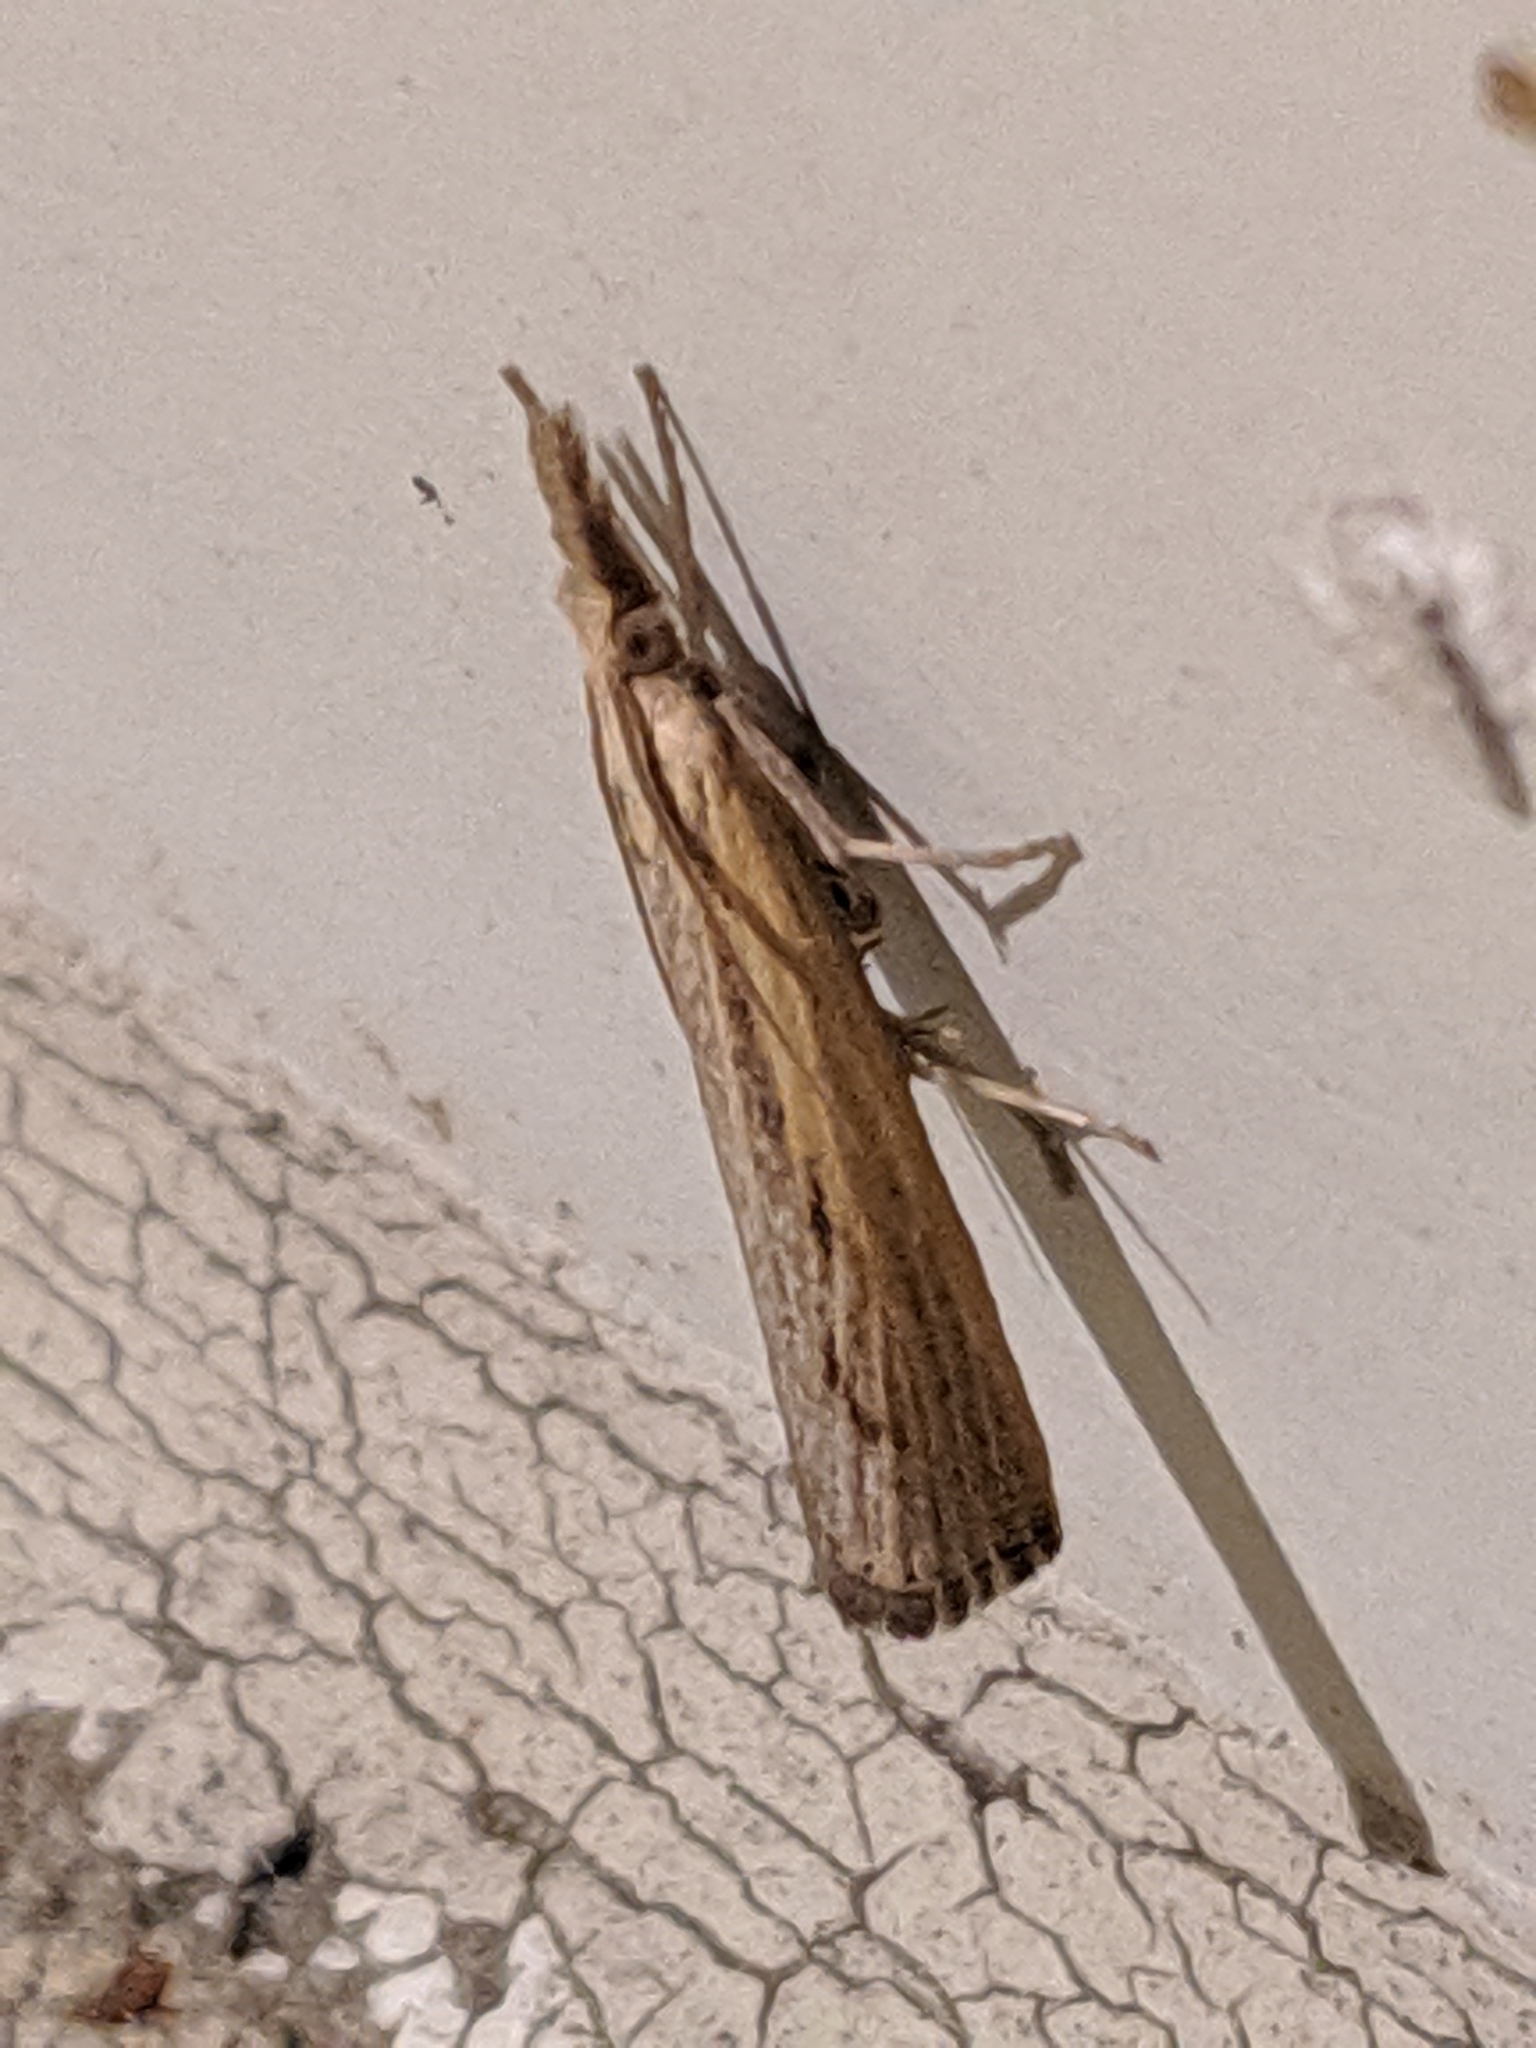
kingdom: Animalia
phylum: Arthropoda
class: Insecta
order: Lepidoptera
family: Crambidae
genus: Pediasia
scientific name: Pediasia trisecta
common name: Sod webworm moth
